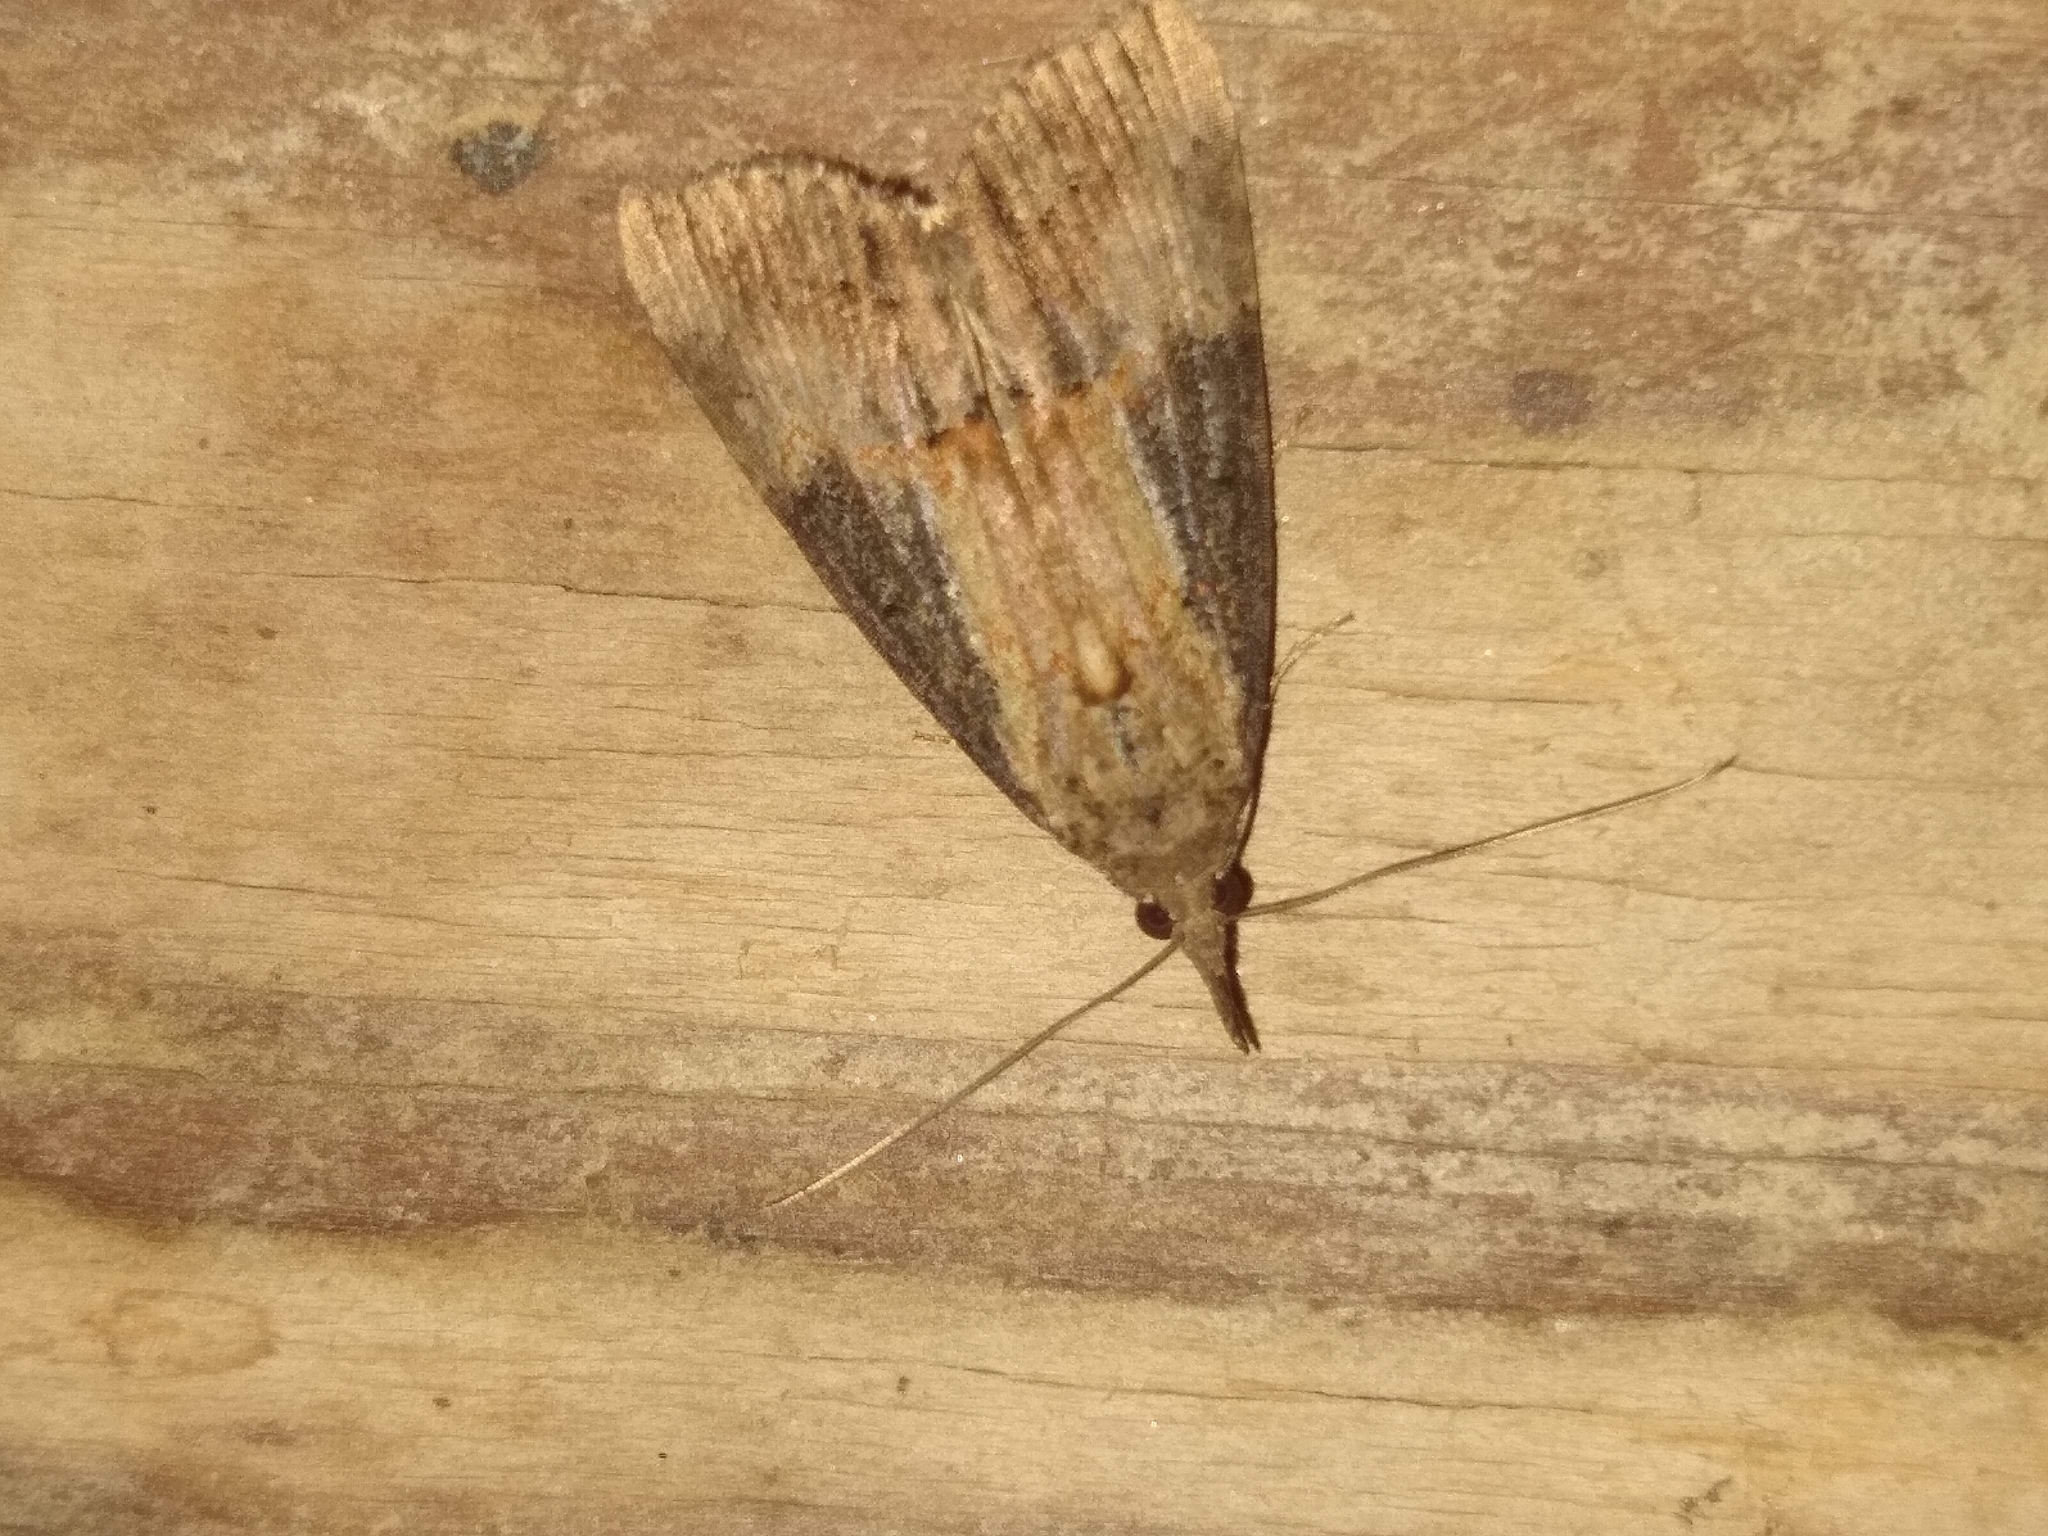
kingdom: Animalia
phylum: Arthropoda
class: Insecta
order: Lepidoptera
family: Erebidae
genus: Hypena
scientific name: Hypena scabra
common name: Green cloverworm
